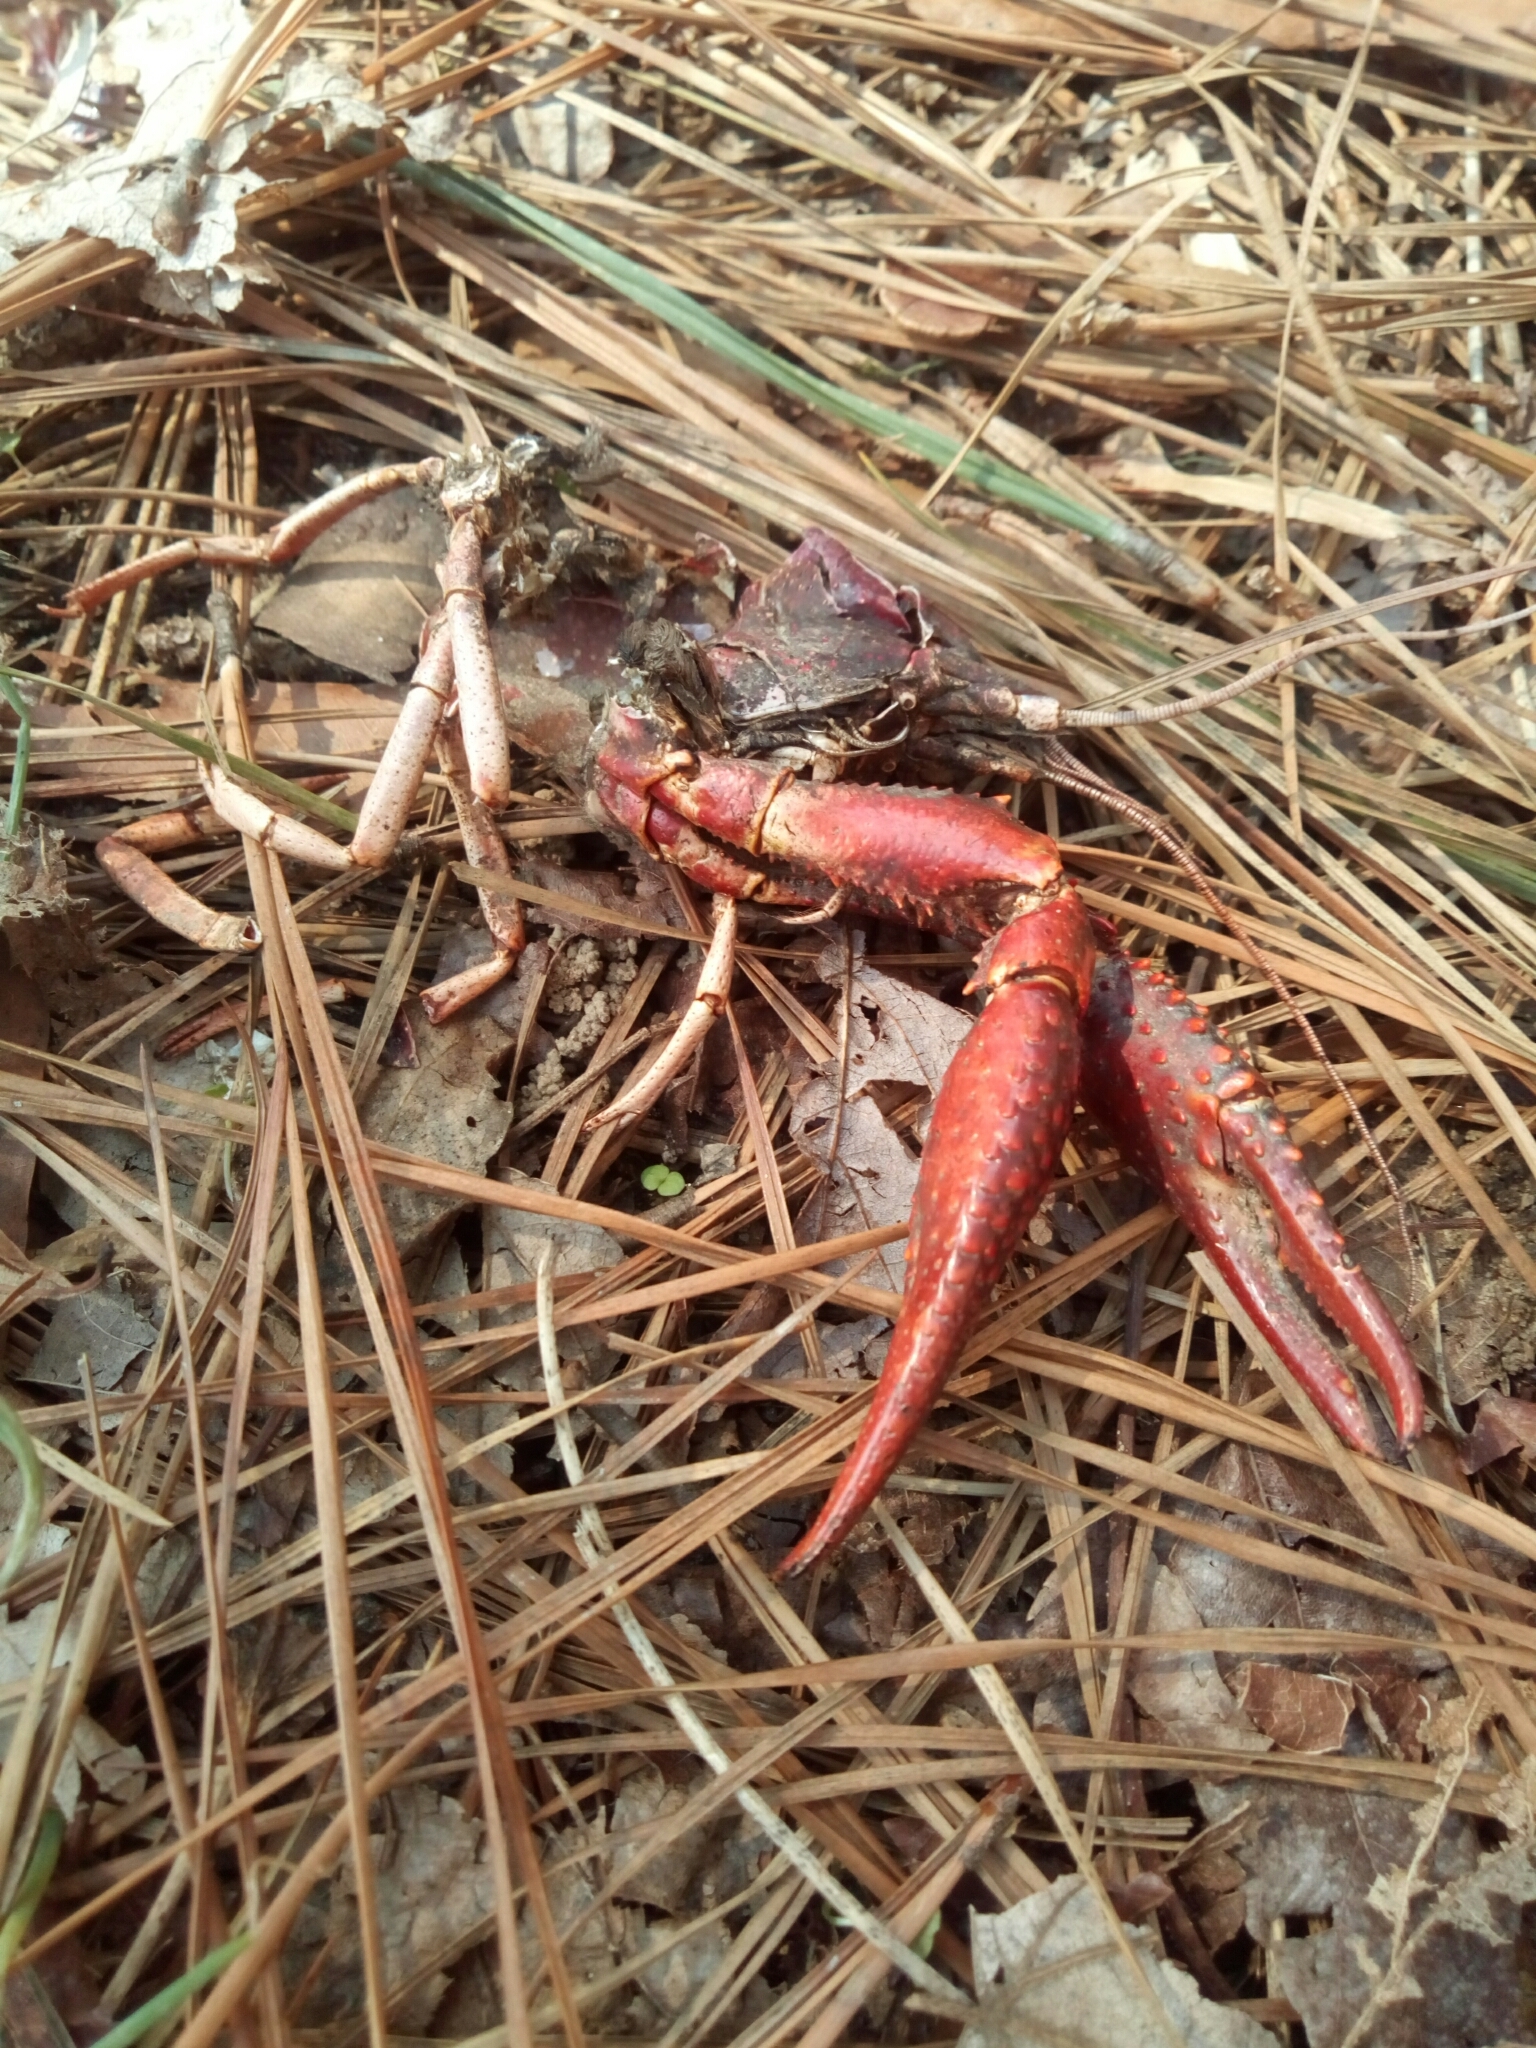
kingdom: Animalia
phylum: Arthropoda
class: Malacostraca
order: Decapoda
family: Cambaridae
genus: Procambarus
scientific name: Procambarus clarkii
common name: Red swamp crayfish
